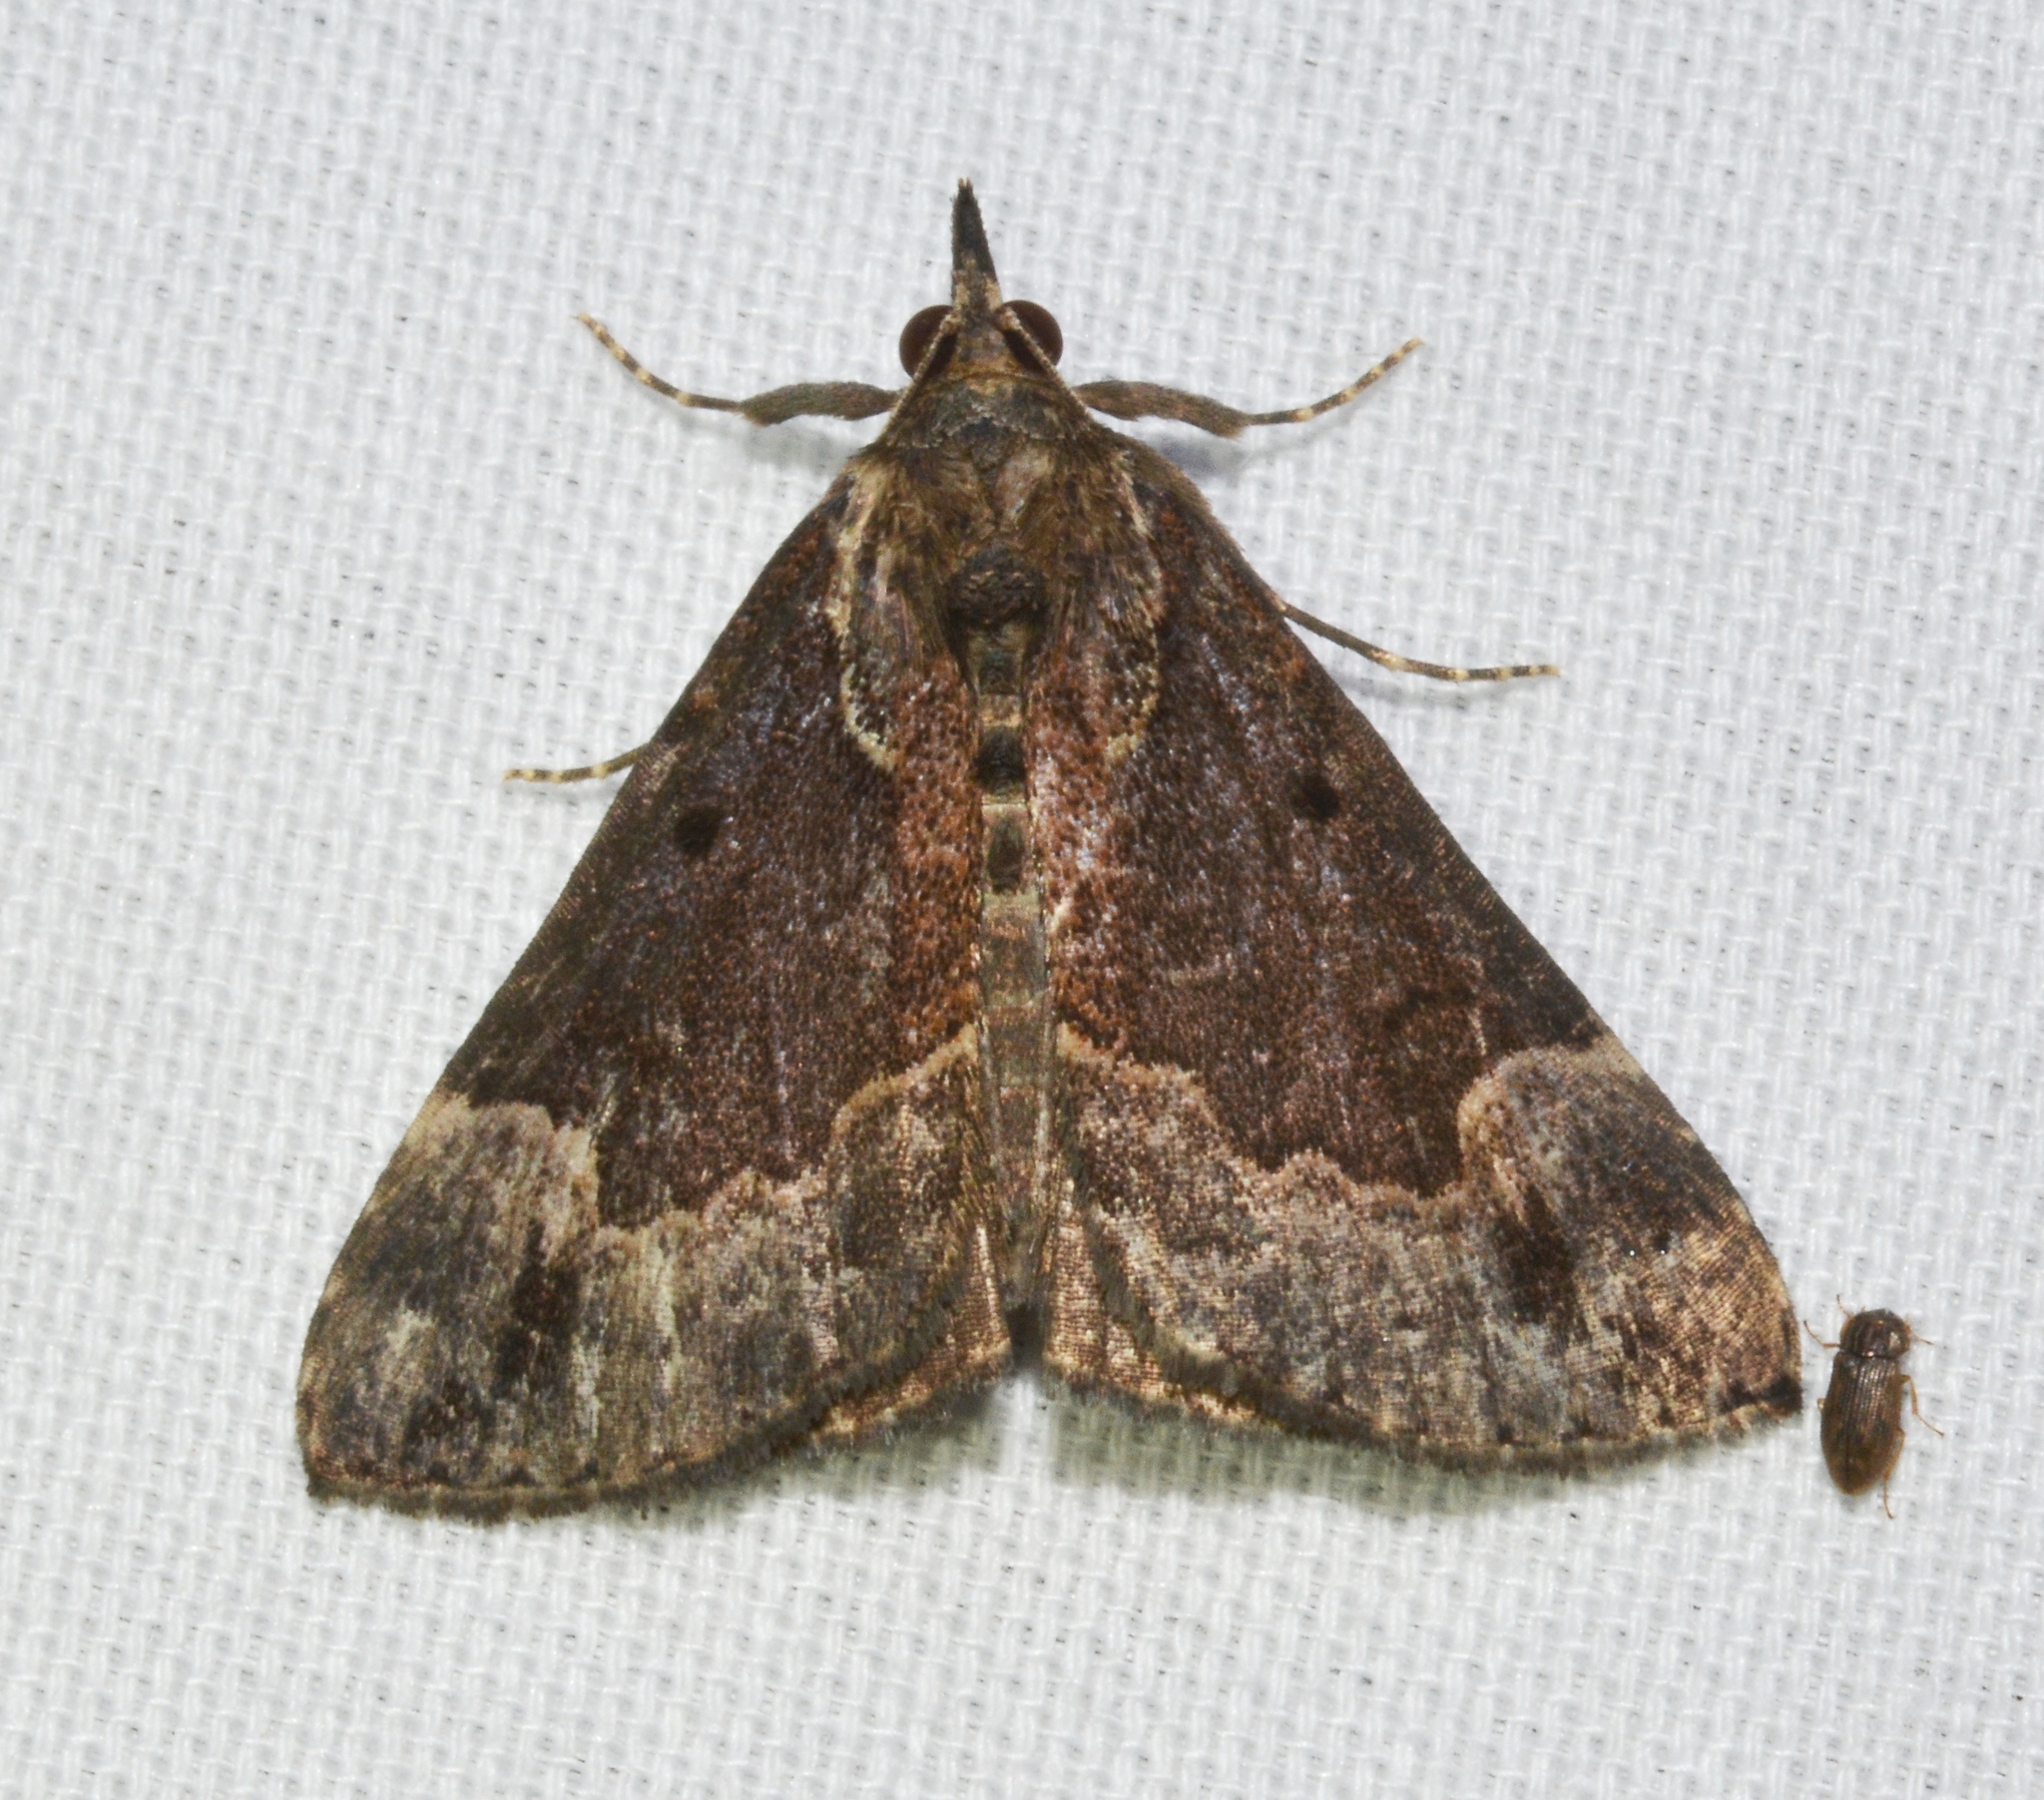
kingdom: Animalia
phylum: Arthropoda
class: Insecta
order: Lepidoptera
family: Erebidae
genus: Hypena
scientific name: Hypena baltimoralis
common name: Baltimore snout
